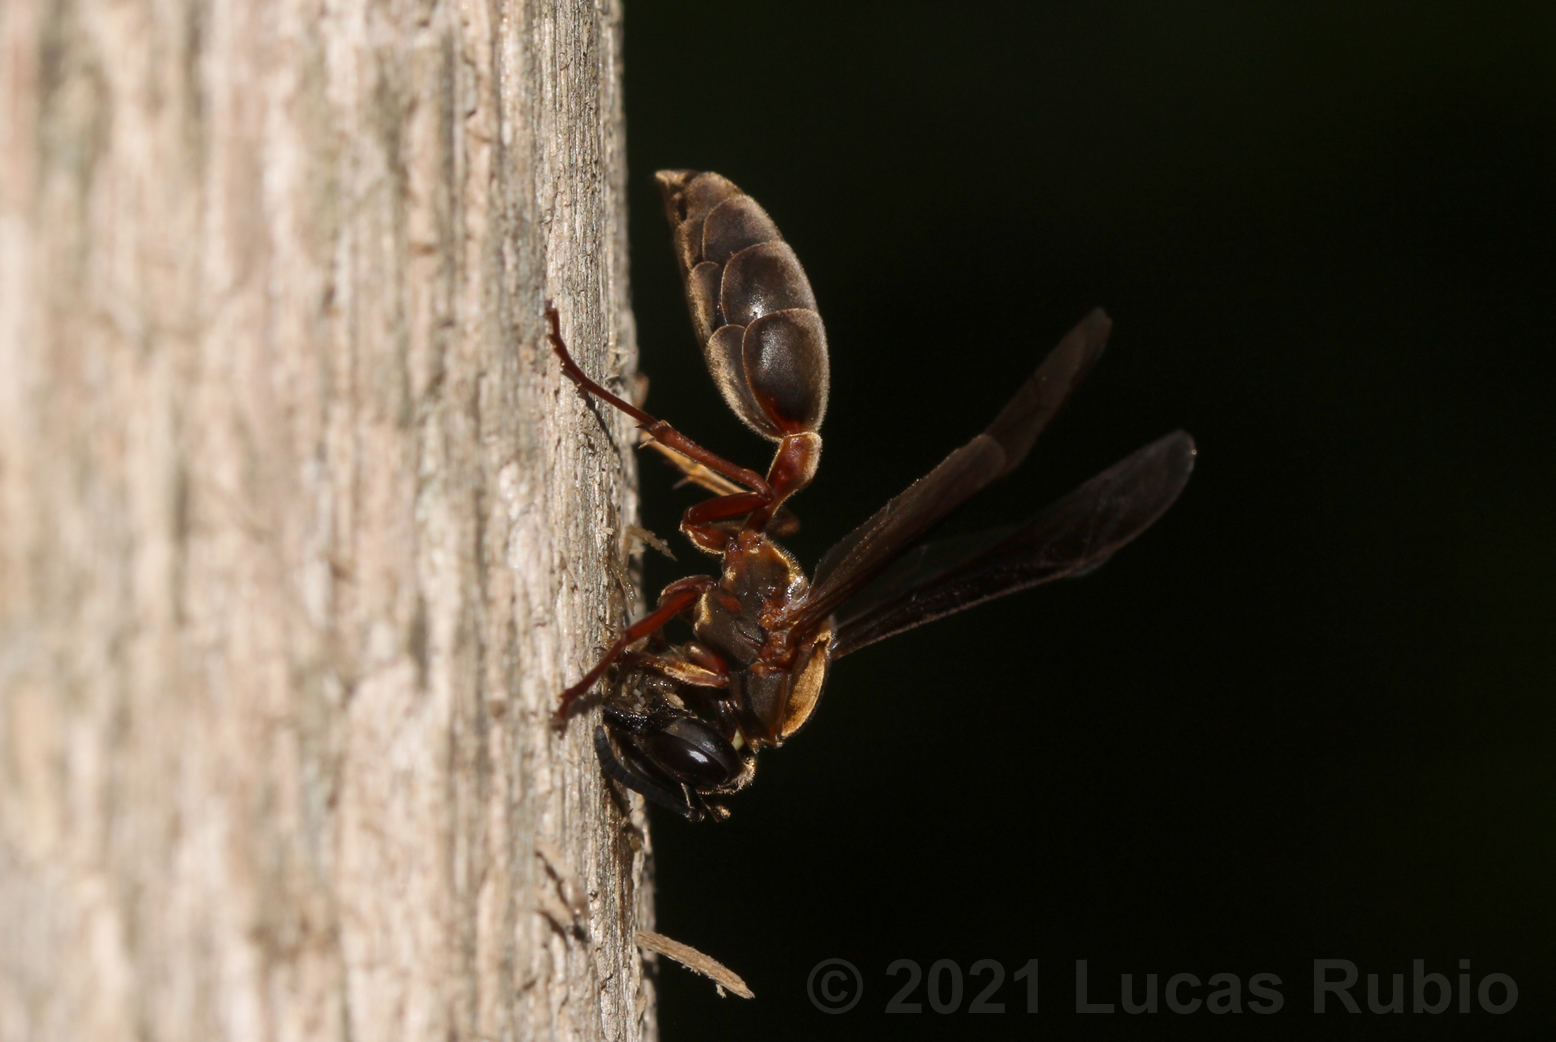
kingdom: Animalia
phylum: Arthropoda
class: Insecta
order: Hymenoptera
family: Eumenidae
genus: Polybia
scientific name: Polybia sericea
